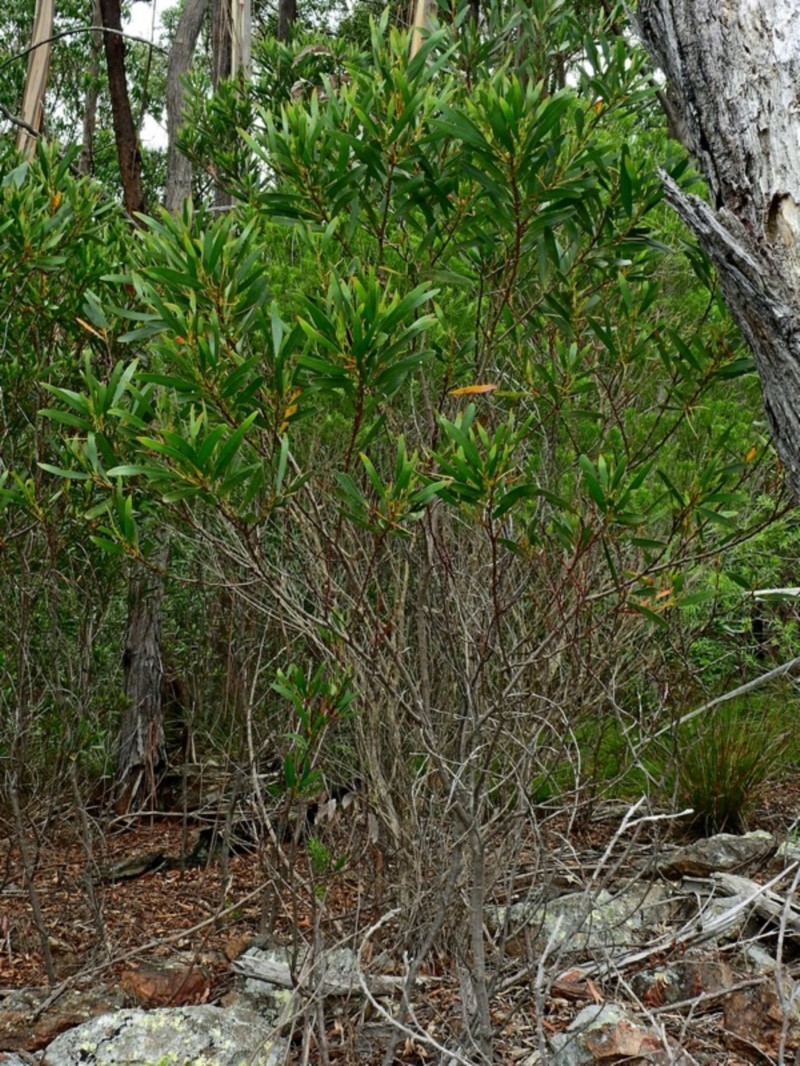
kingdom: Plantae
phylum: Tracheophyta
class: Magnoliopsida
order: Fabales
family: Fabaceae
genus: Acacia
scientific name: Acacia obtusifolia
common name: Stiff-leaf wattle
